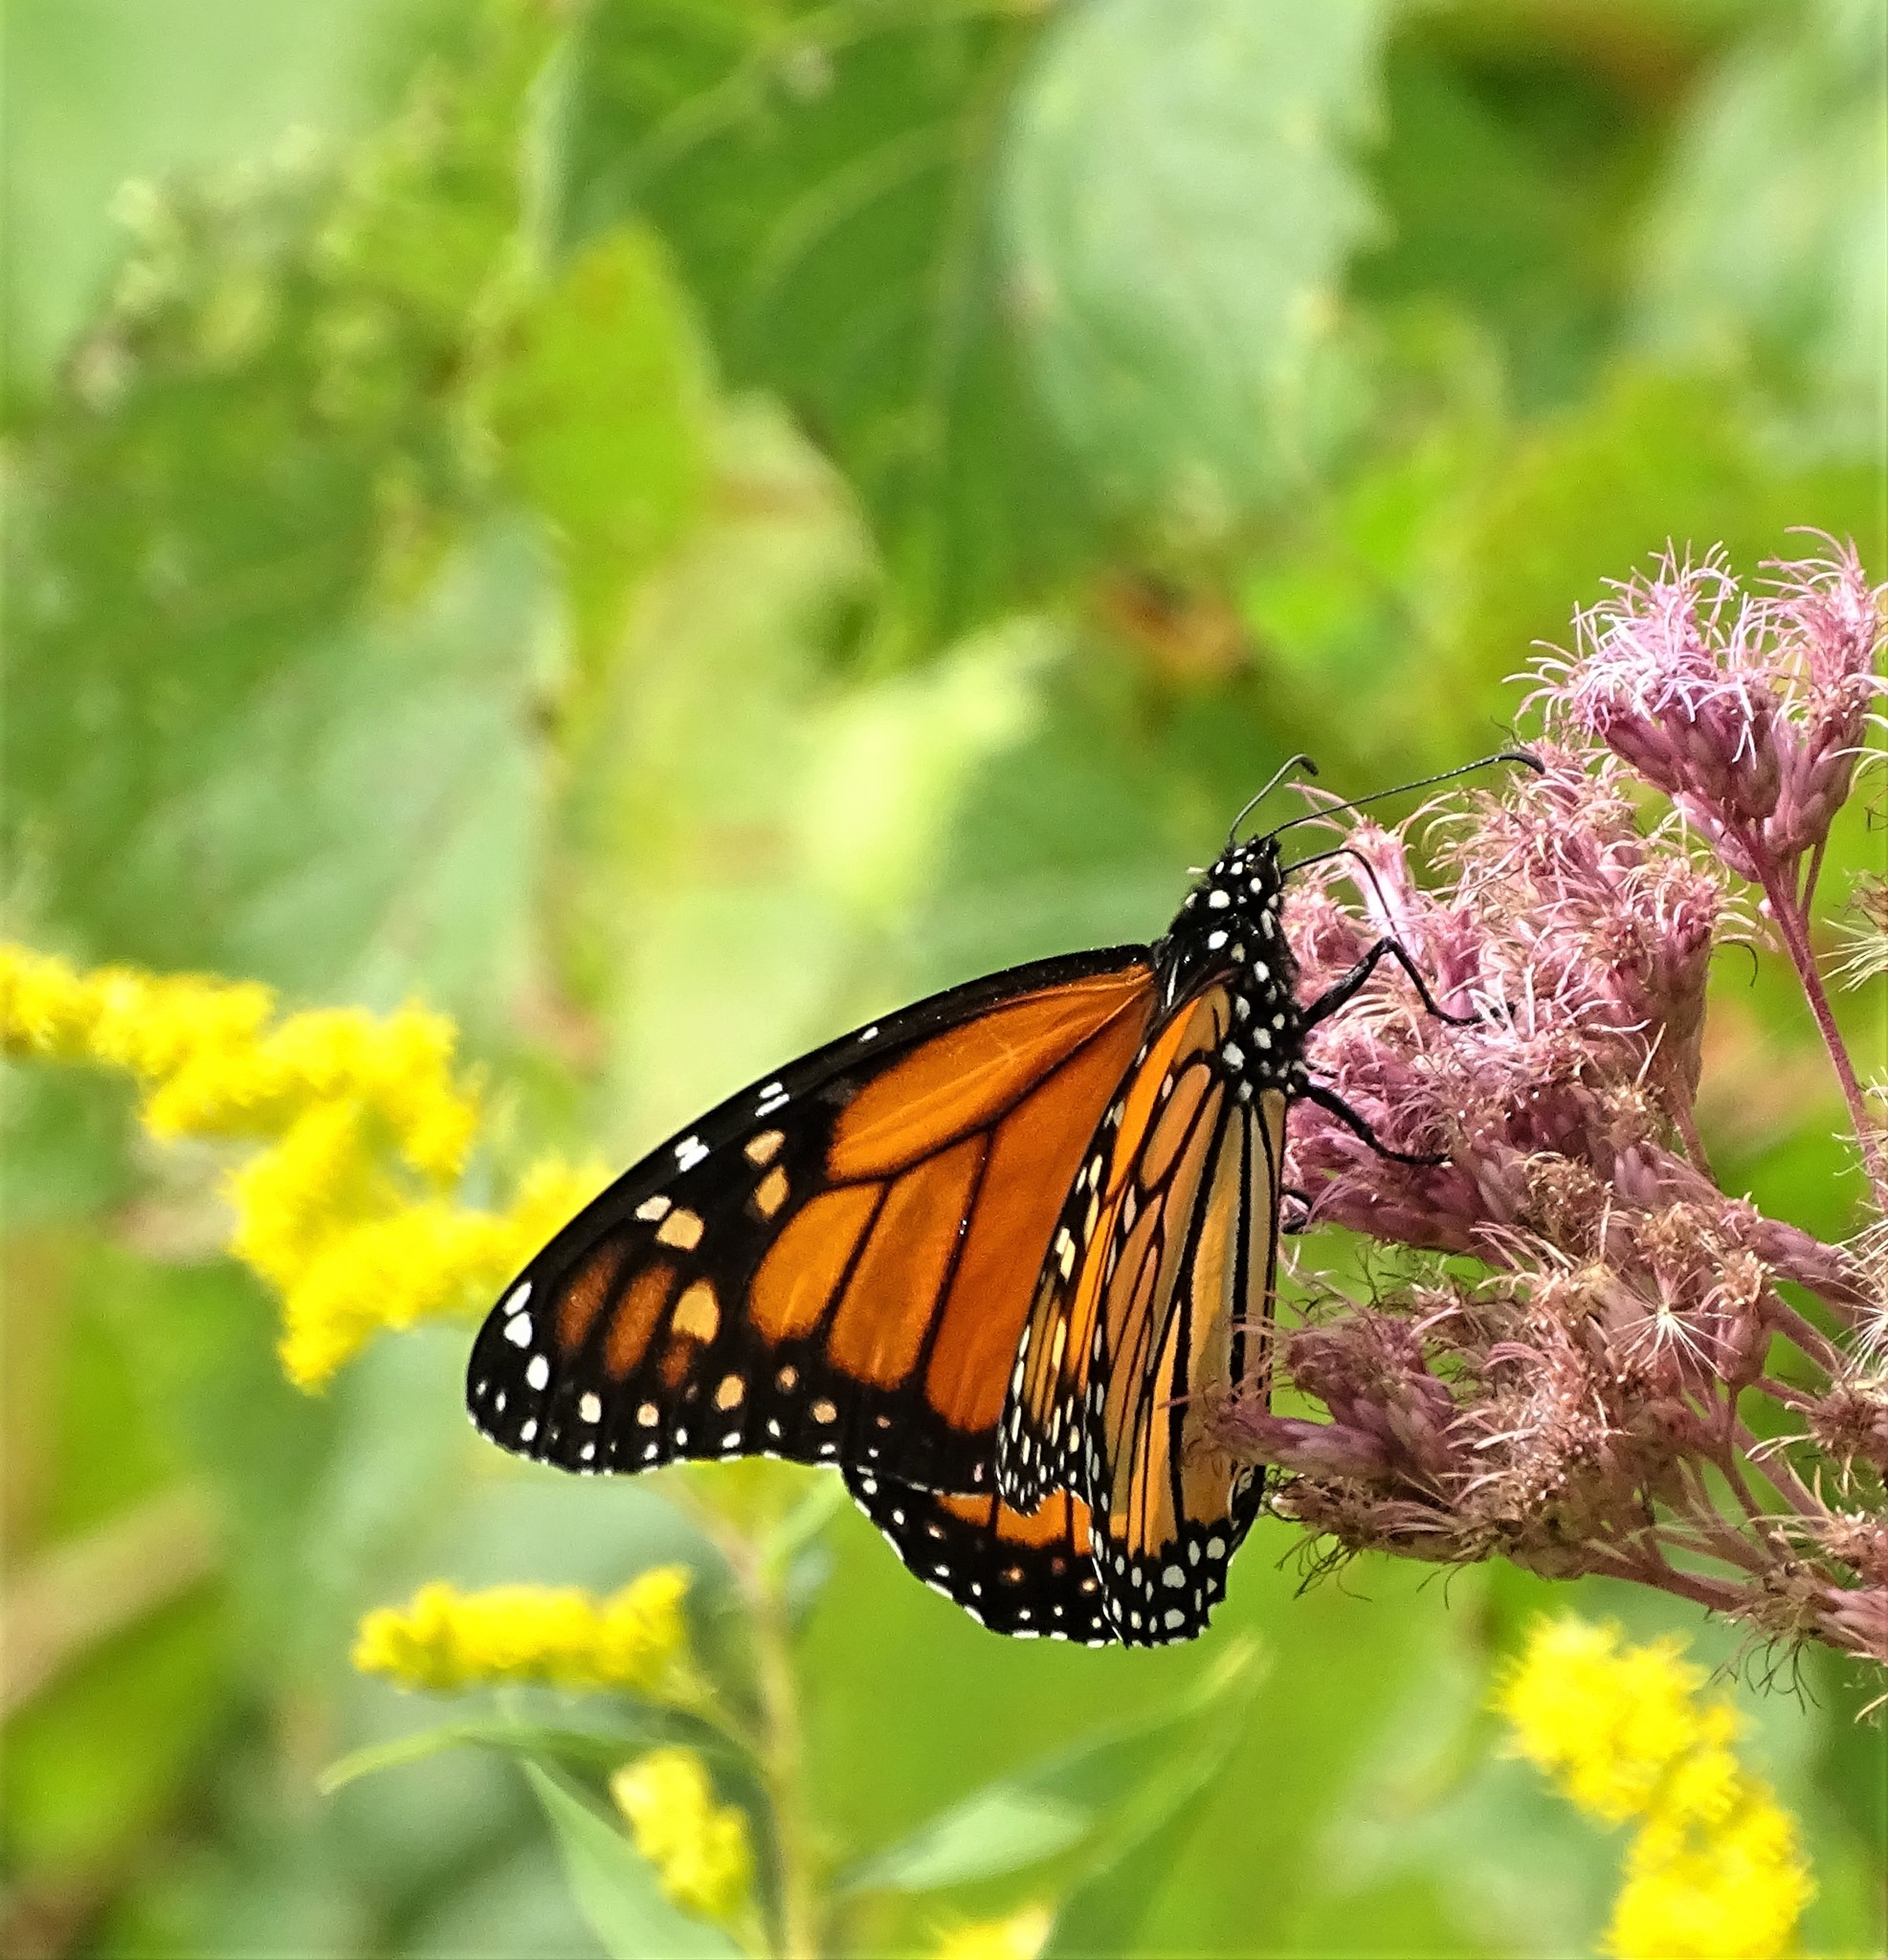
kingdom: Animalia
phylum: Arthropoda
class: Insecta
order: Lepidoptera
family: Nymphalidae
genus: Danaus
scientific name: Danaus plexippus
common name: Monarch
